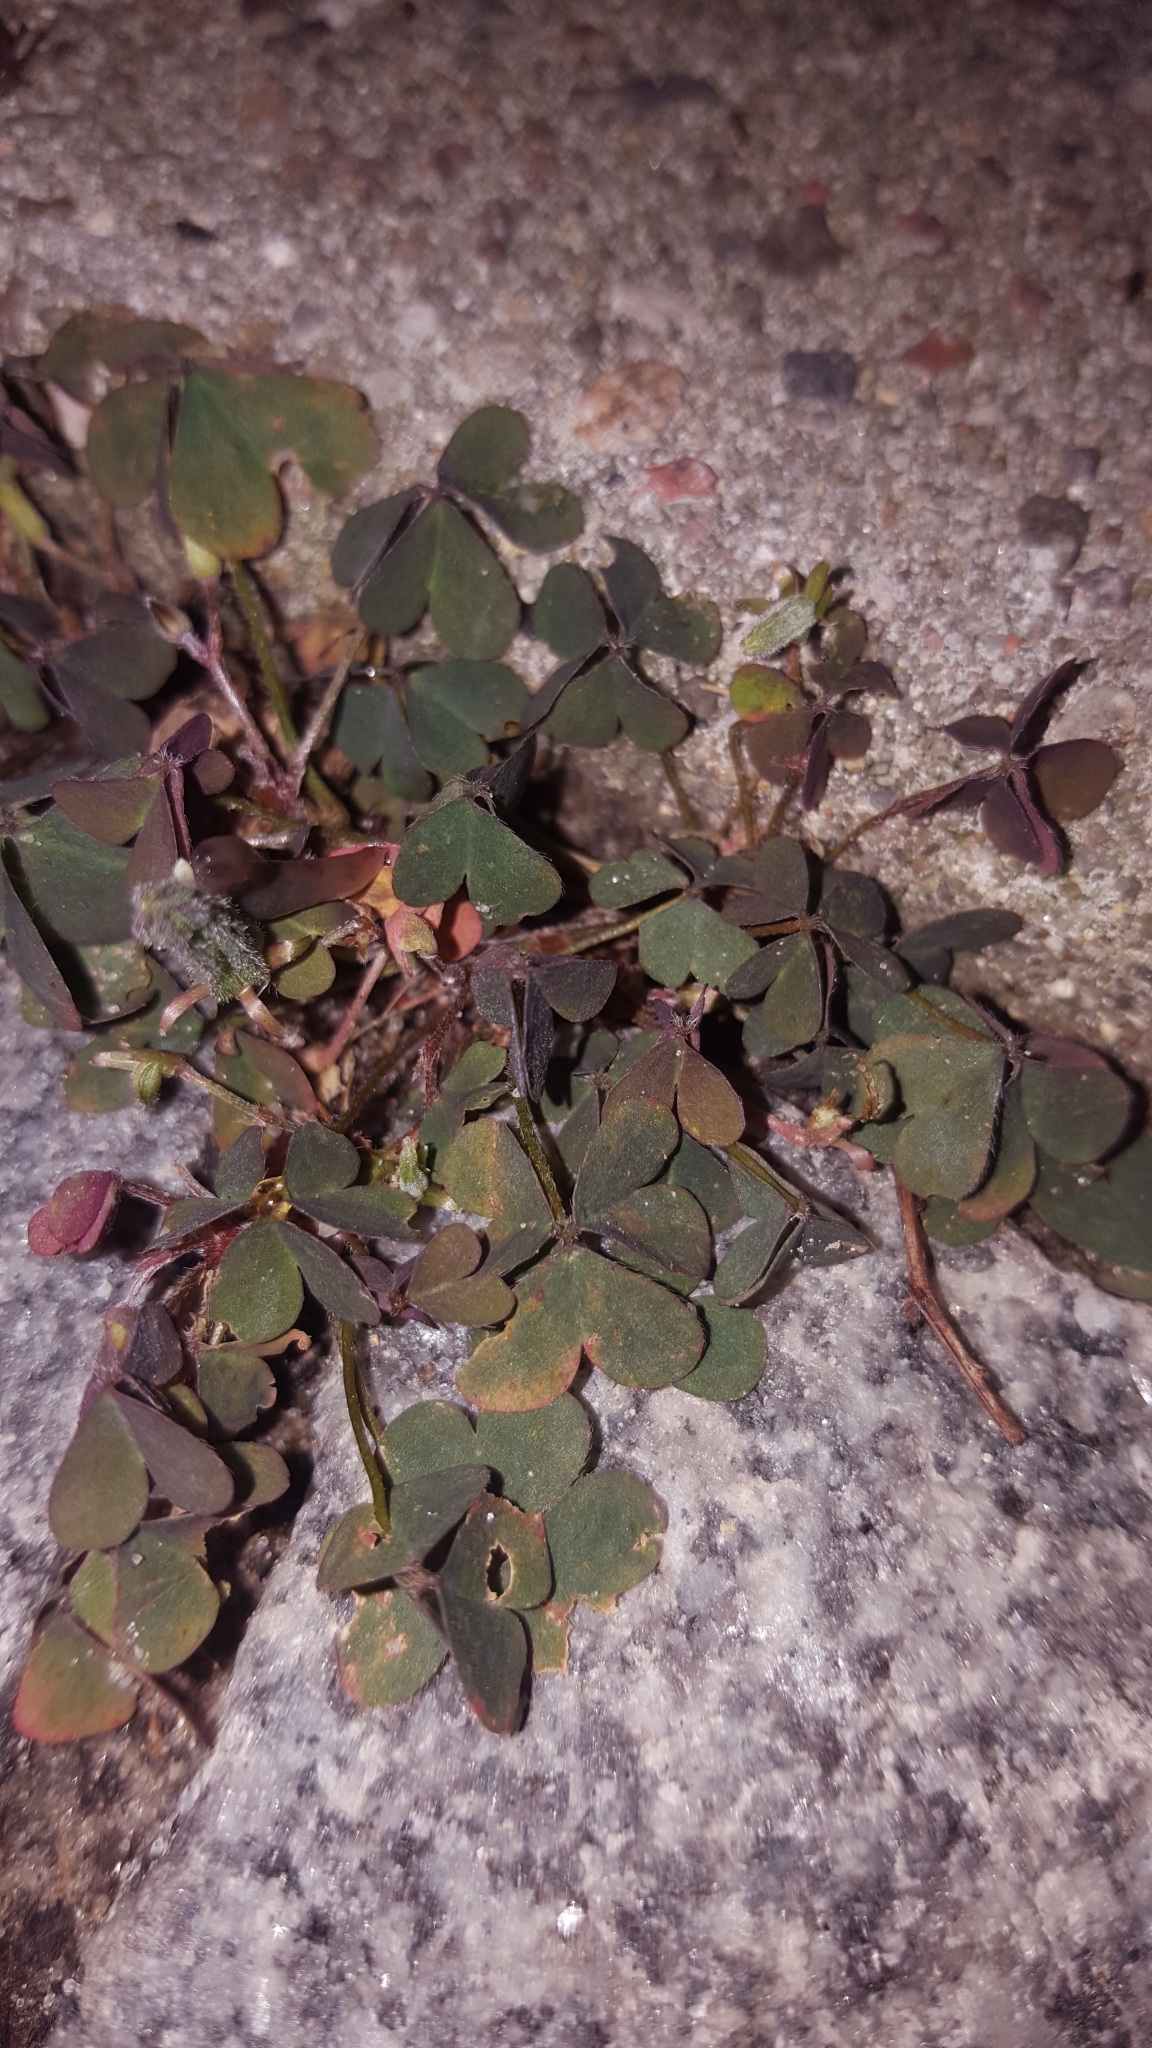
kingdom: Plantae
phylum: Tracheophyta
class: Magnoliopsida
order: Oxalidales
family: Oxalidaceae
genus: Oxalis
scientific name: Oxalis corniculata
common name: Procumbent yellow-sorrel
